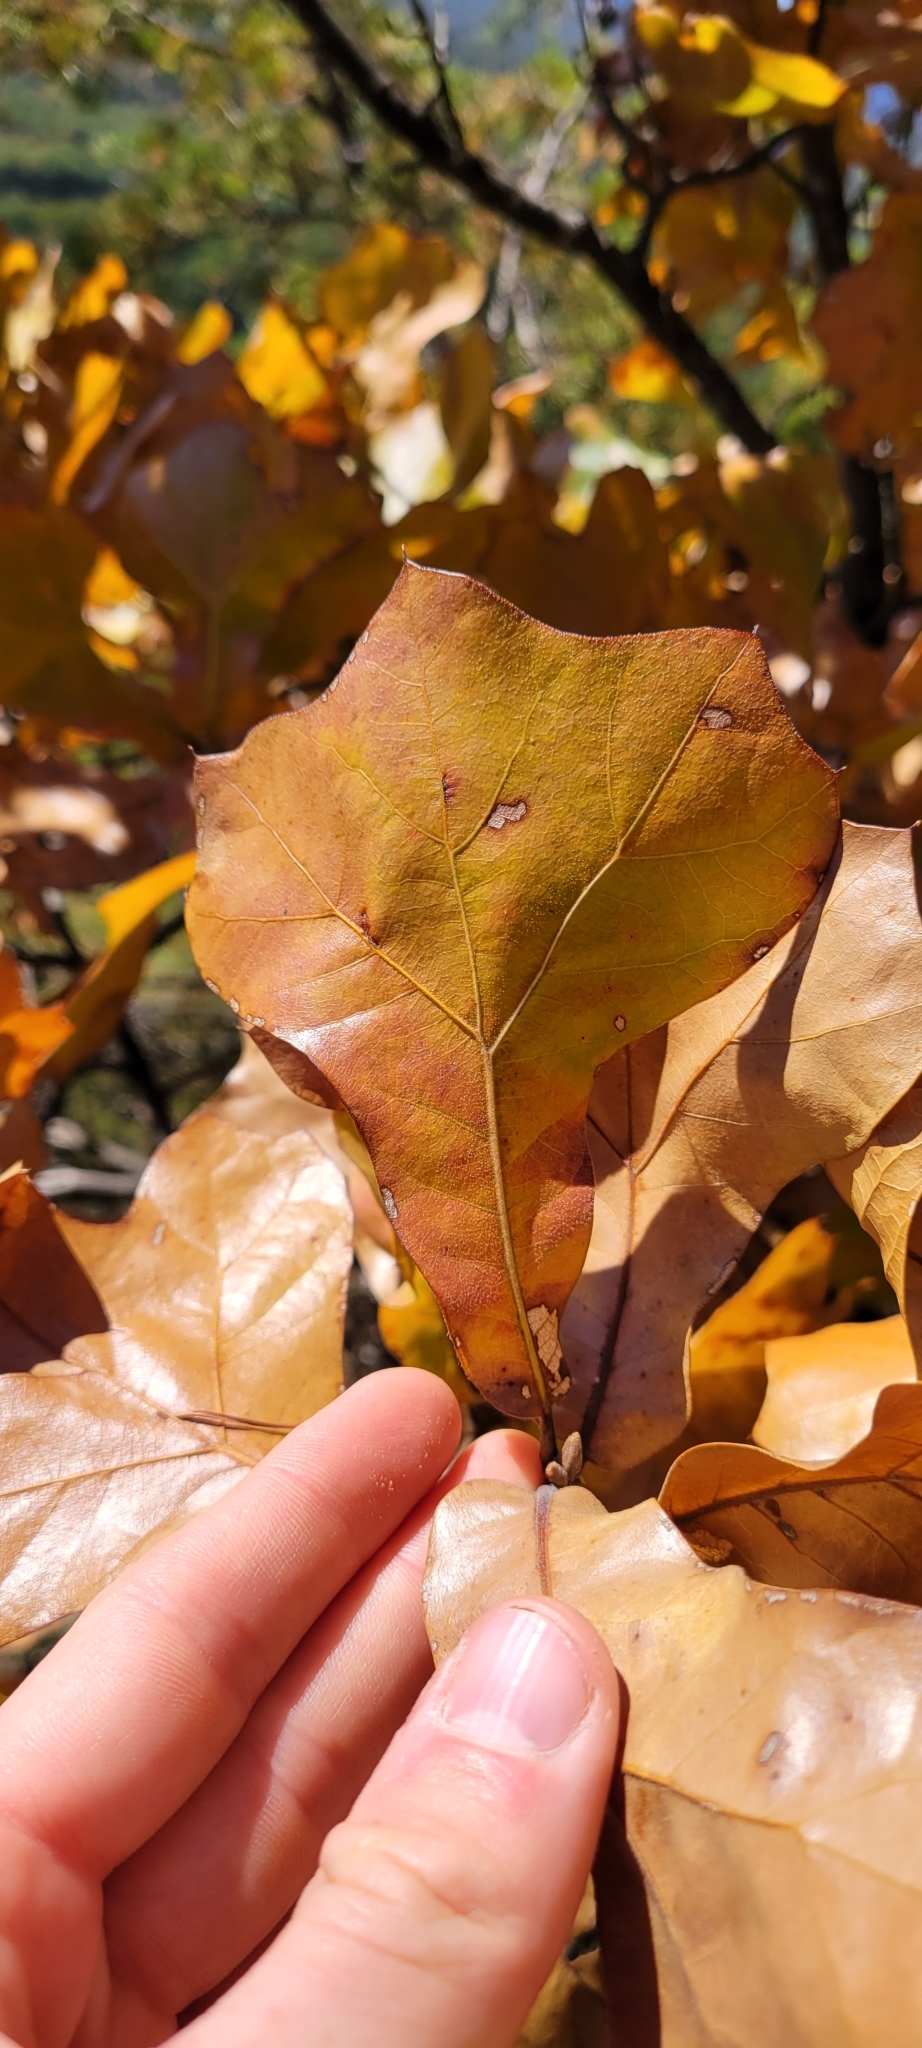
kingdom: Plantae
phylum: Tracheophyta
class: Magnoliopsida
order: Fagales
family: Fagaceae
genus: Quercus
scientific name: Quercus marilandica
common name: Blackjack oak
